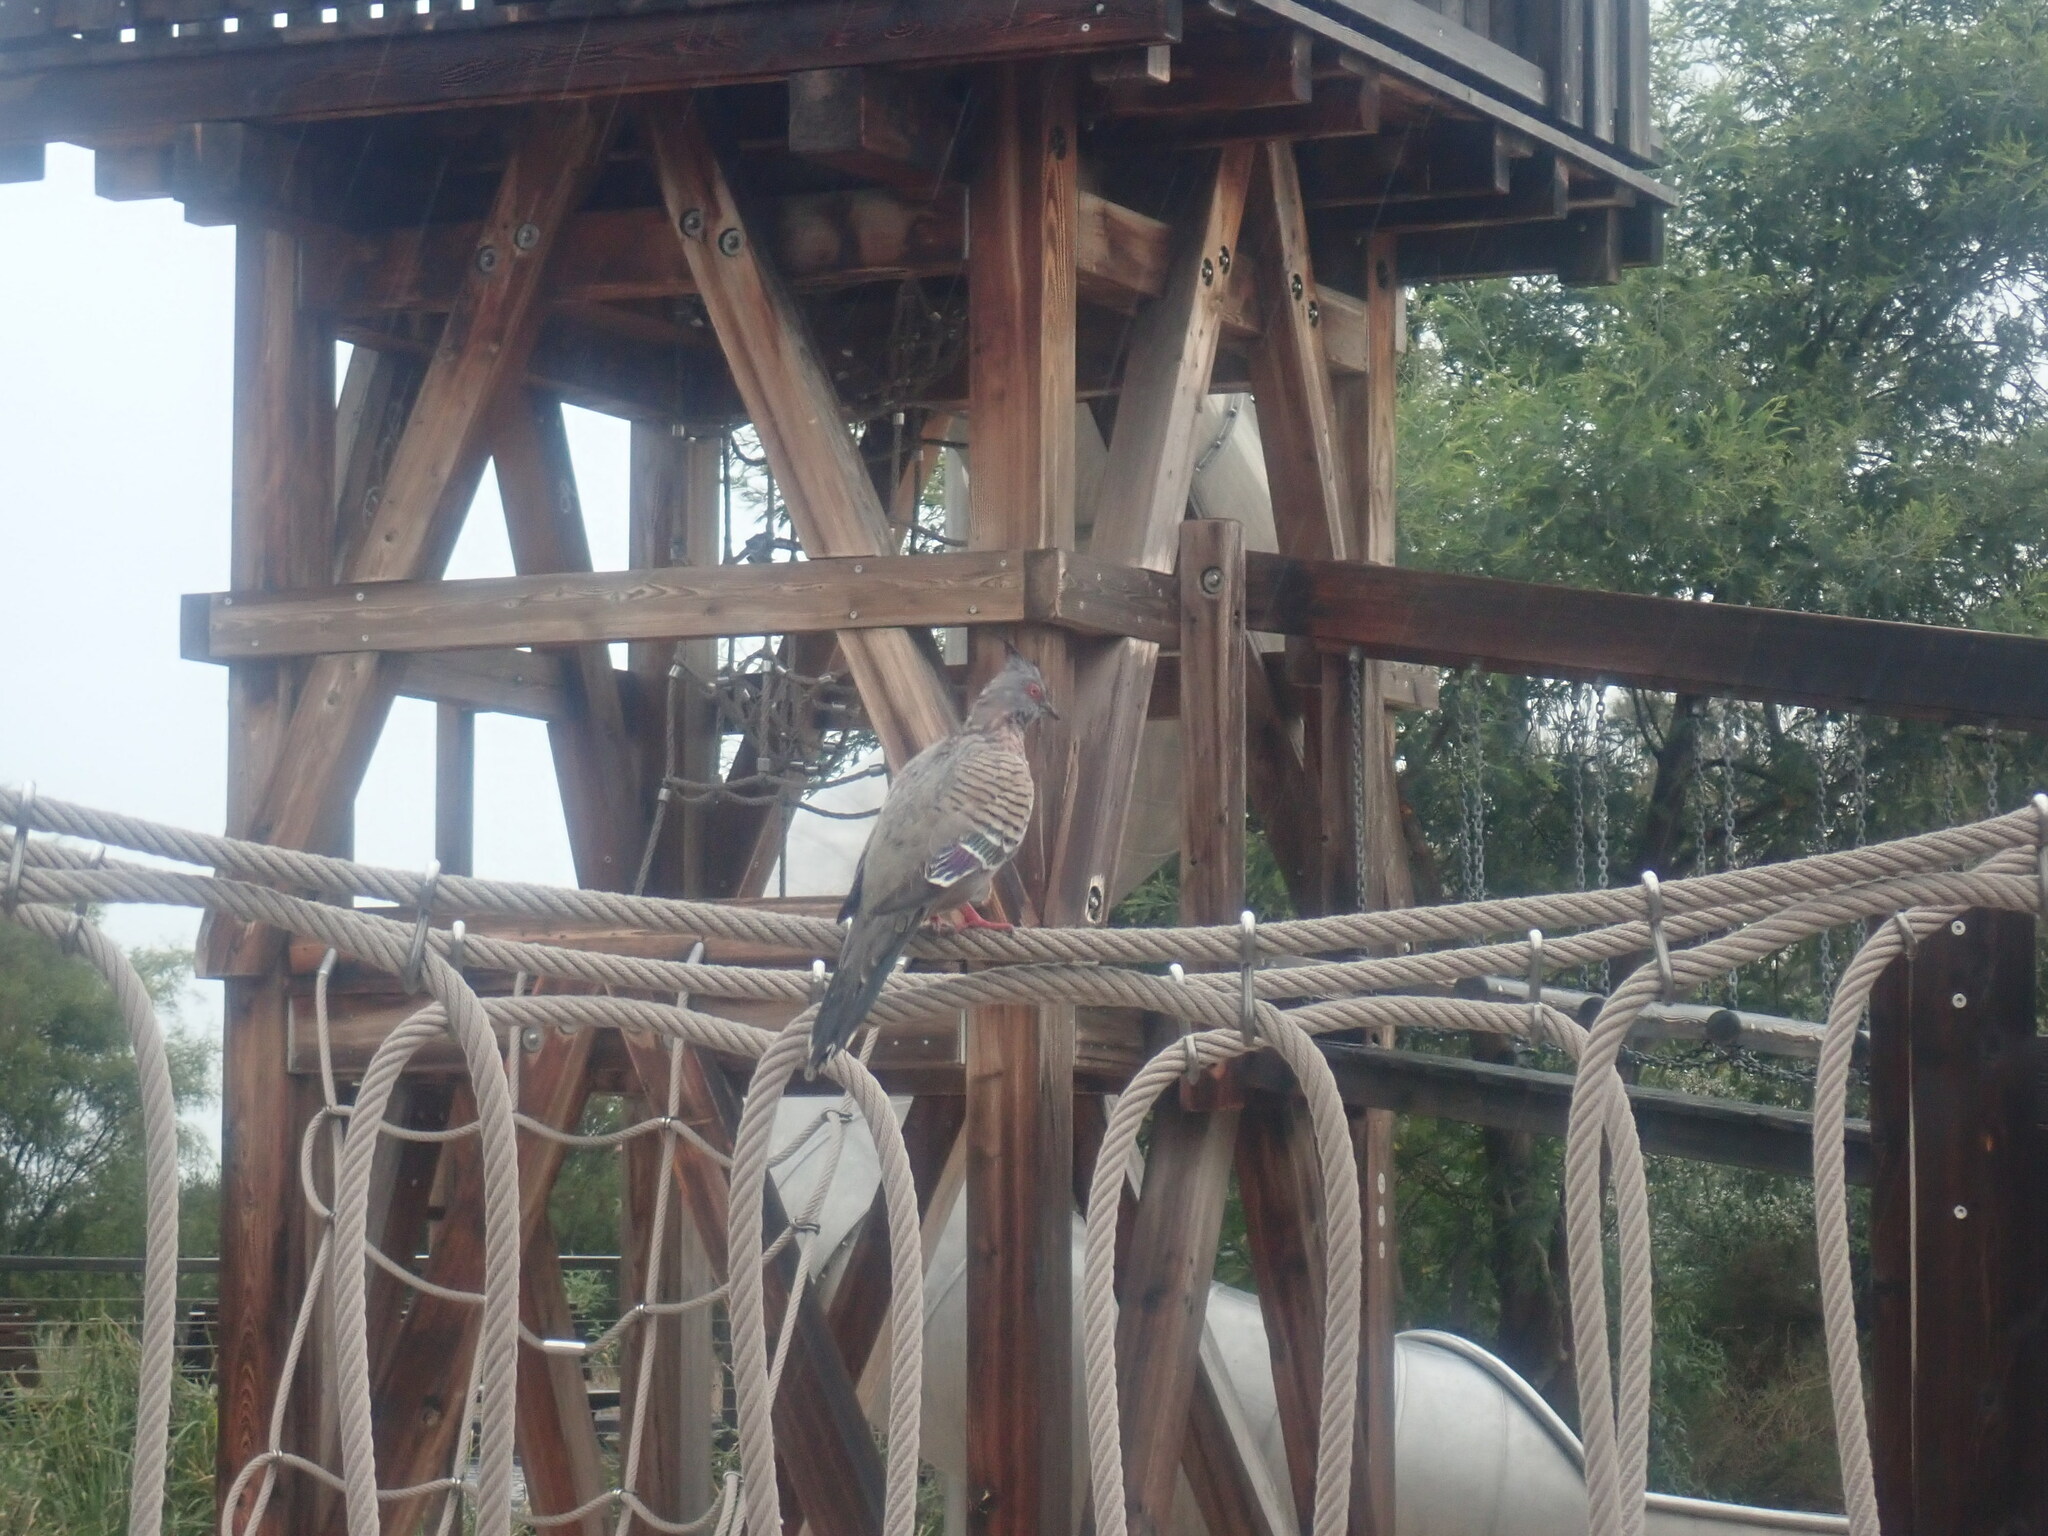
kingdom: Animalia
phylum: Chordata
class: Aves
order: Columbiformes
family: Columbidae
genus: Ocyphaps
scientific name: Ocyphaps lophotes
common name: Crested pigeon
